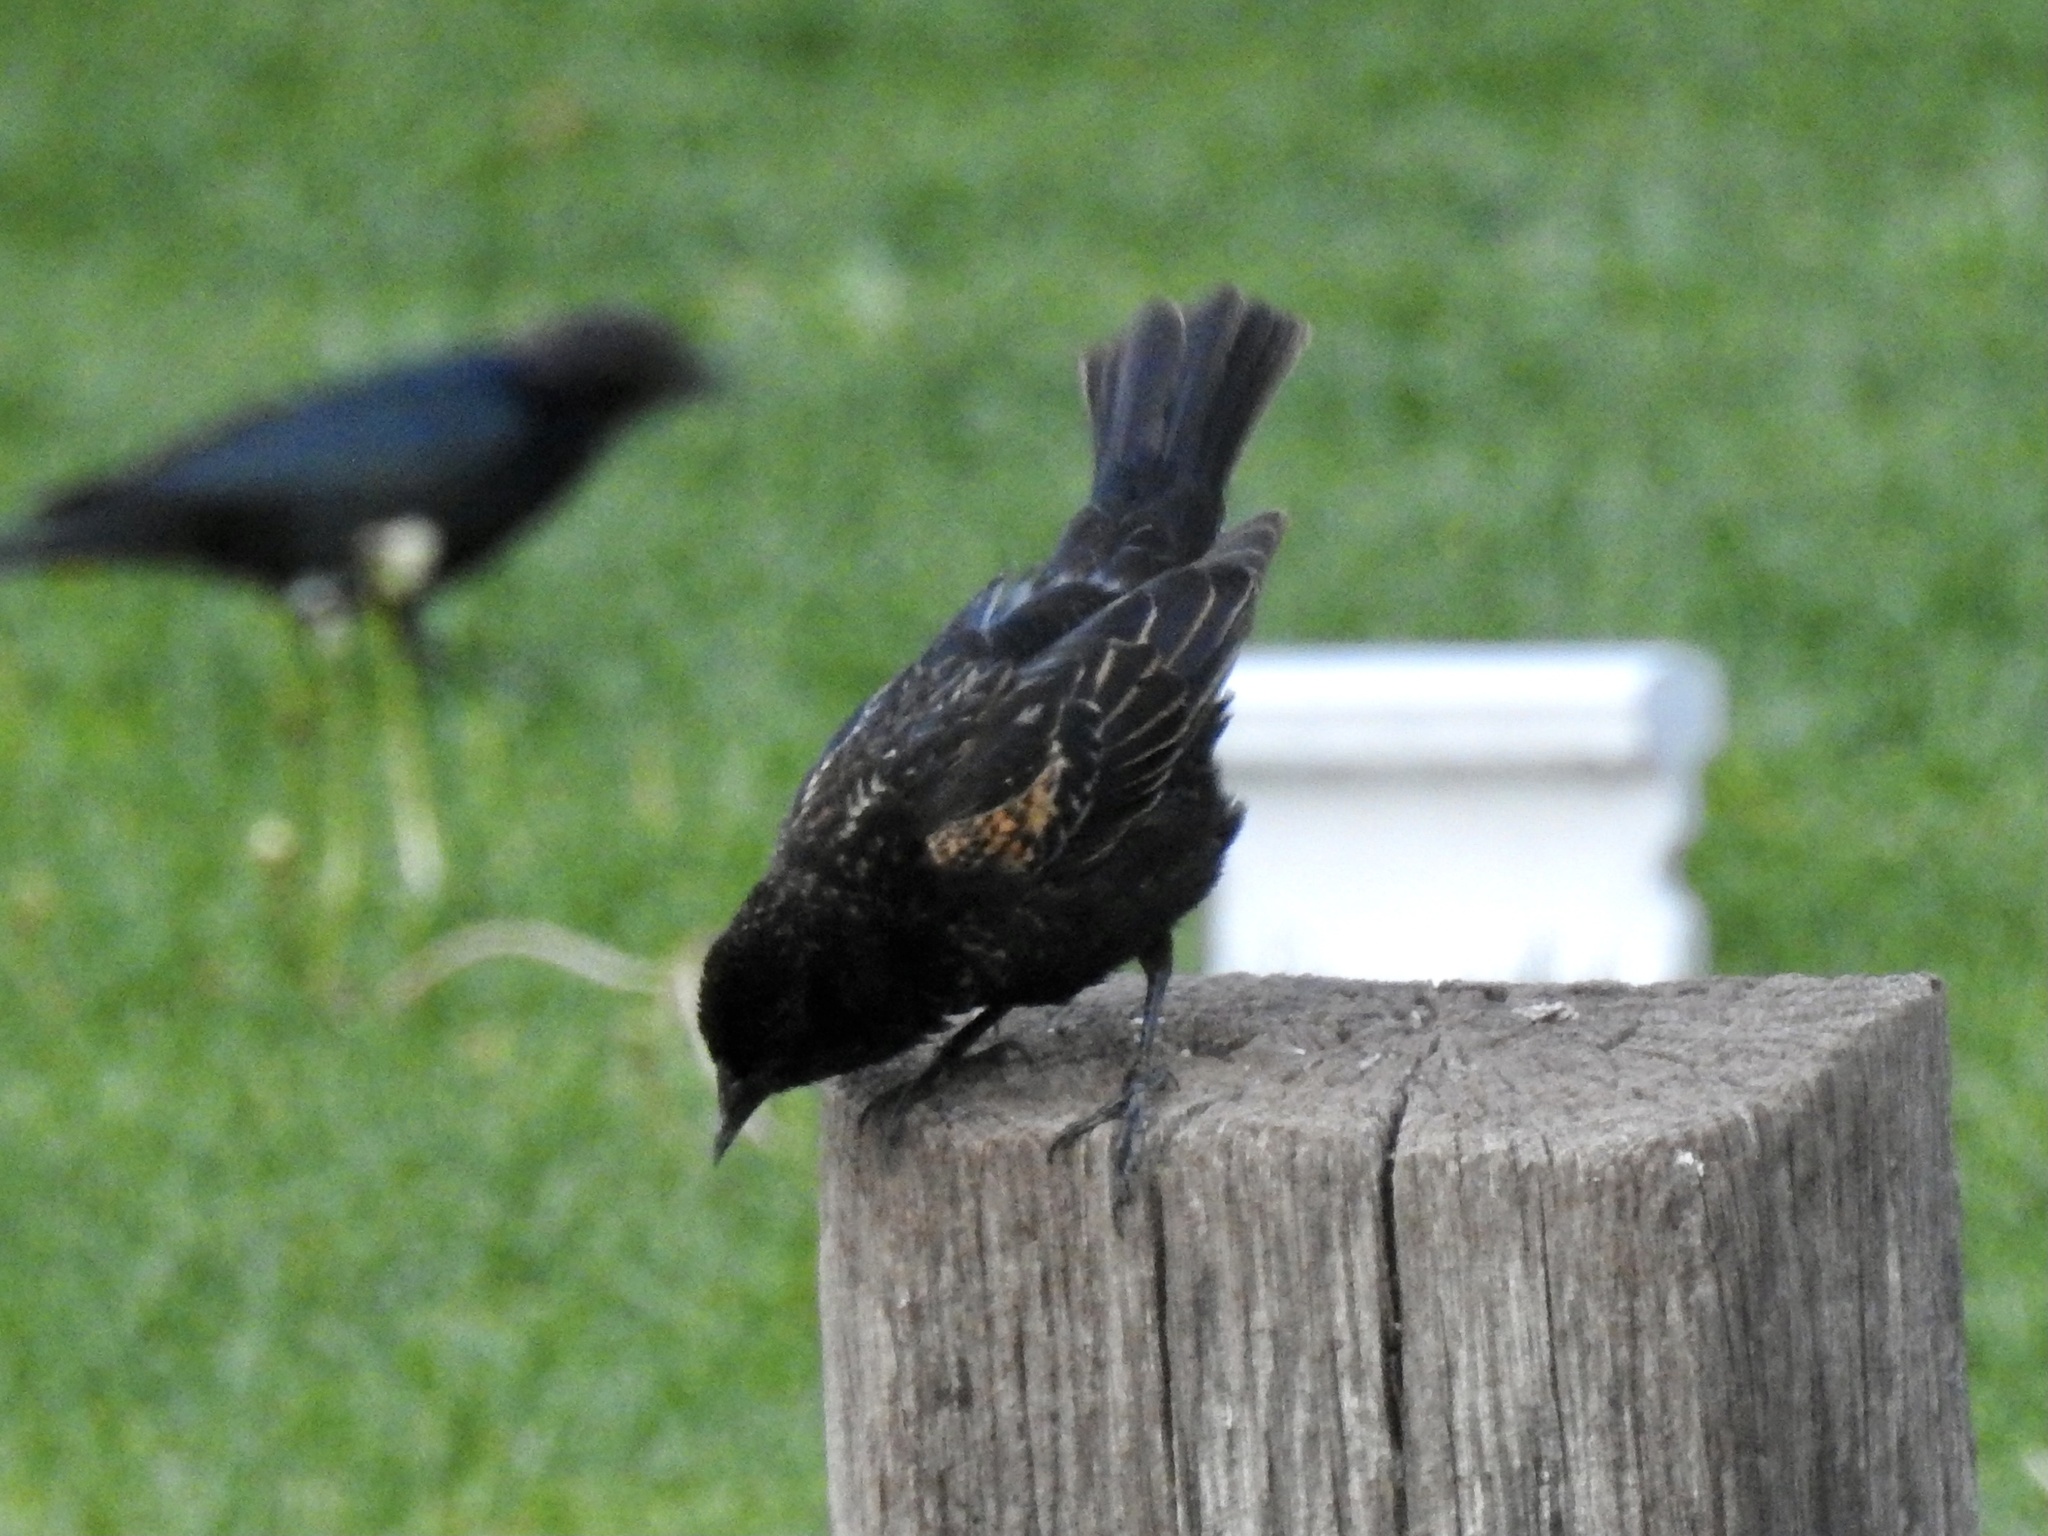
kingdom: Animalia
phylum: Chordata
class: Aves
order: Passeriformes
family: Icteridae
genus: Agelaius
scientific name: Agelaius phoeniceus
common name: Red-winged blackbird
